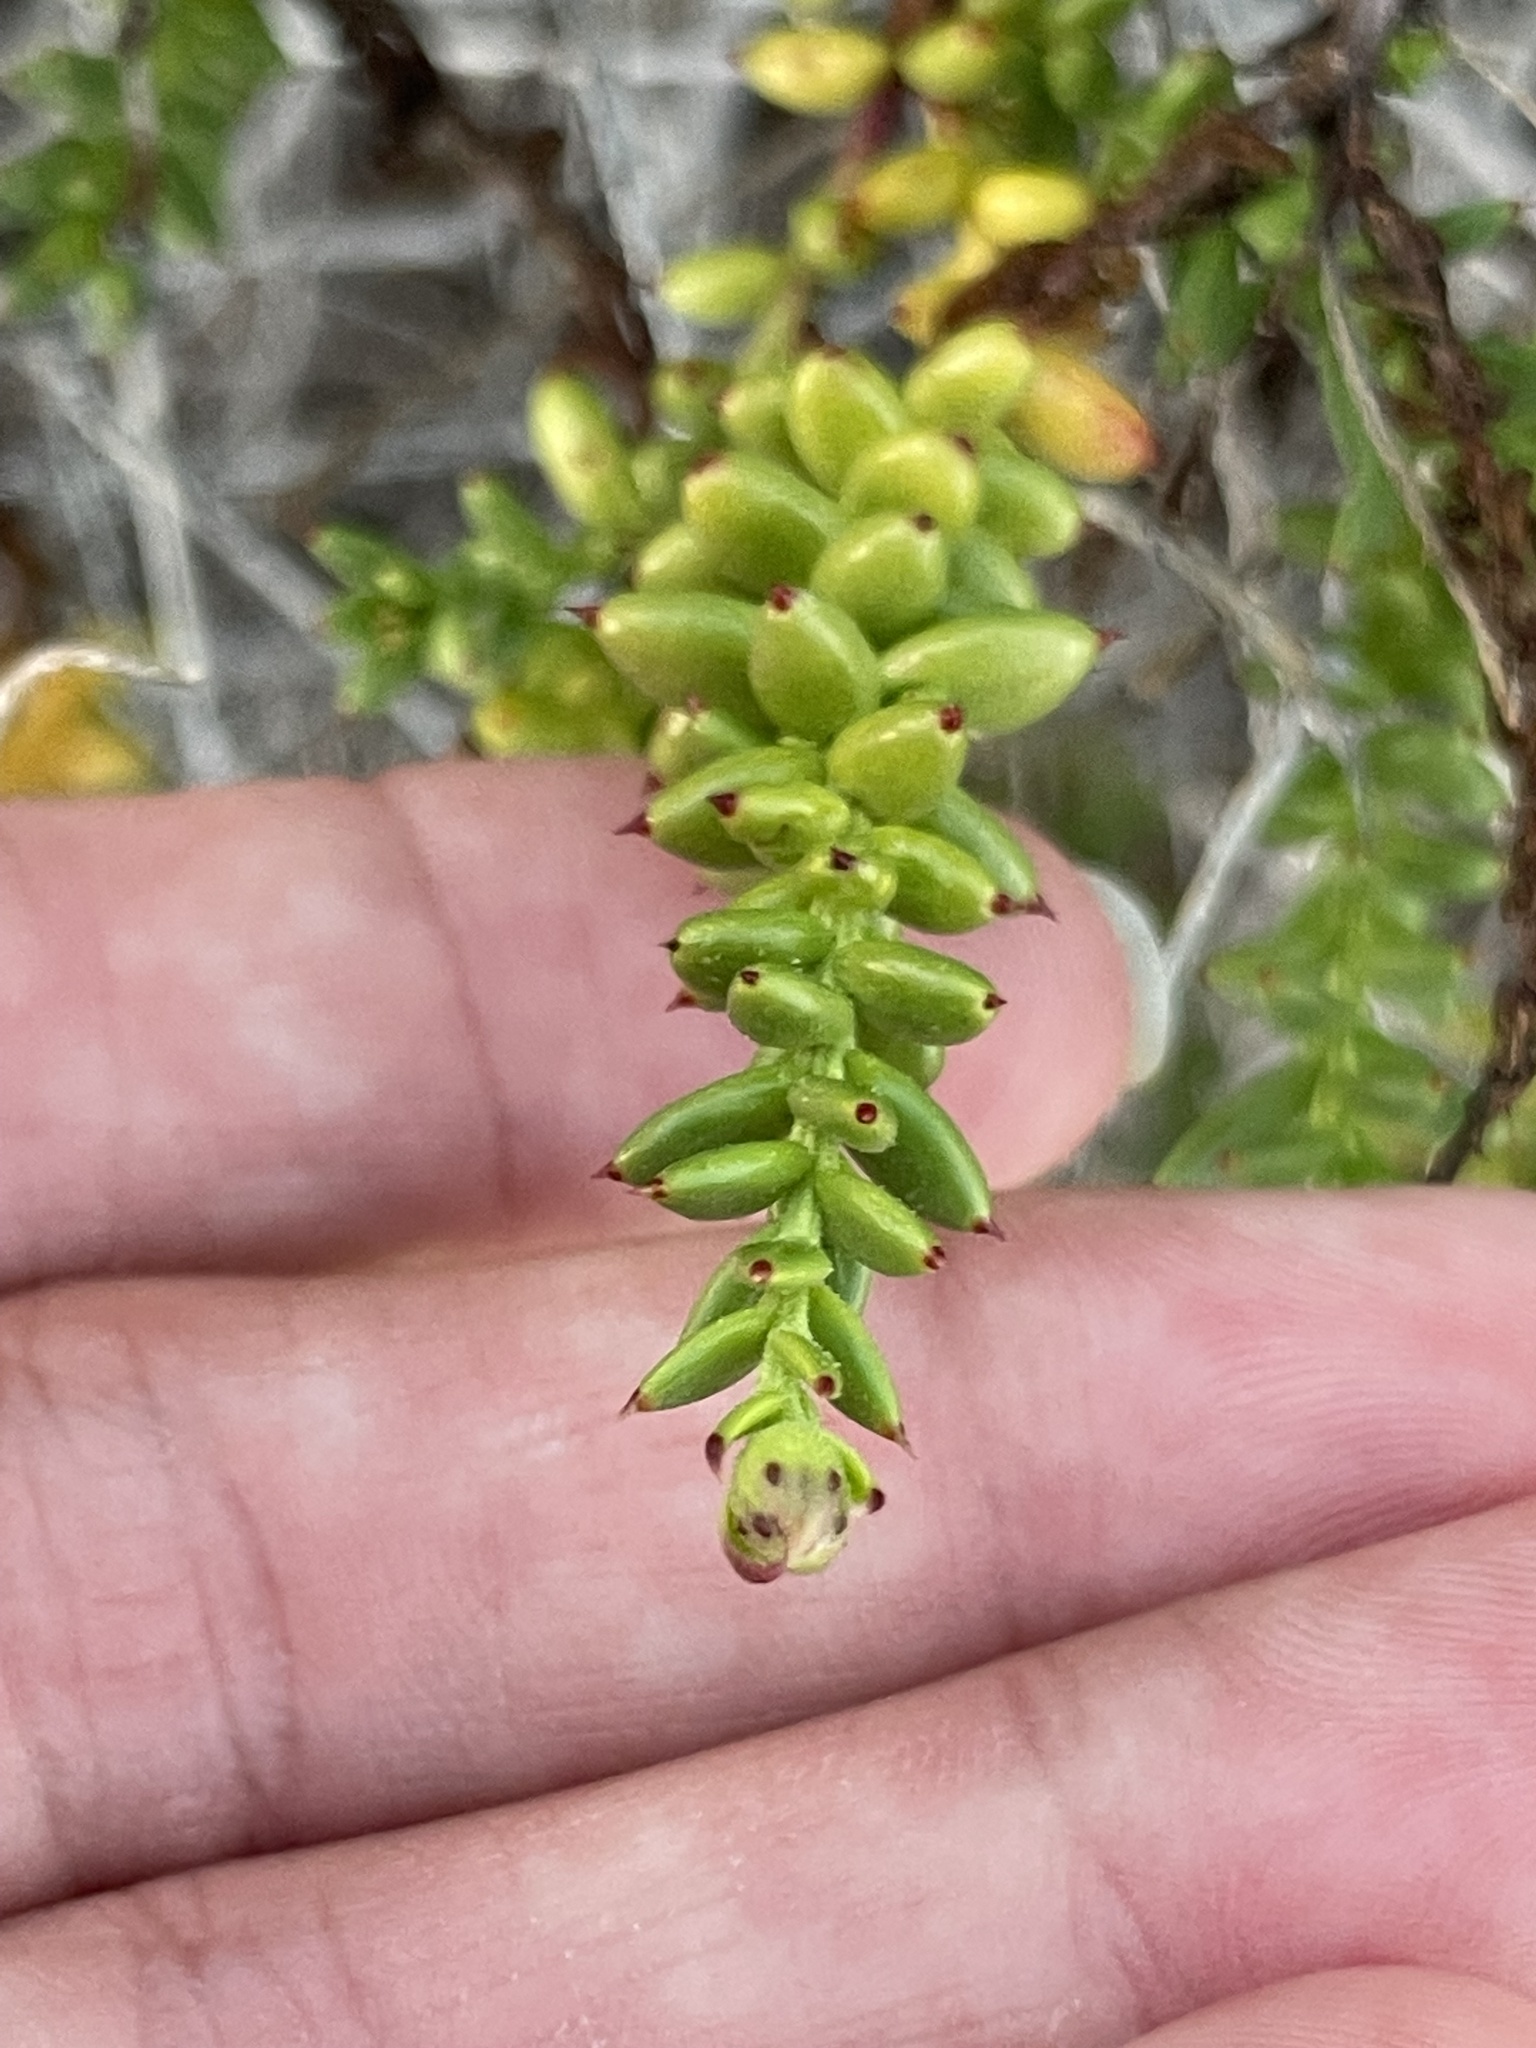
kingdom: Plantae
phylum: Tracheophyta
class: Magnoliopsida
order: Asterales
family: Asteraceae
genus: Bajacalia
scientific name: Bajacalia crassifolia
